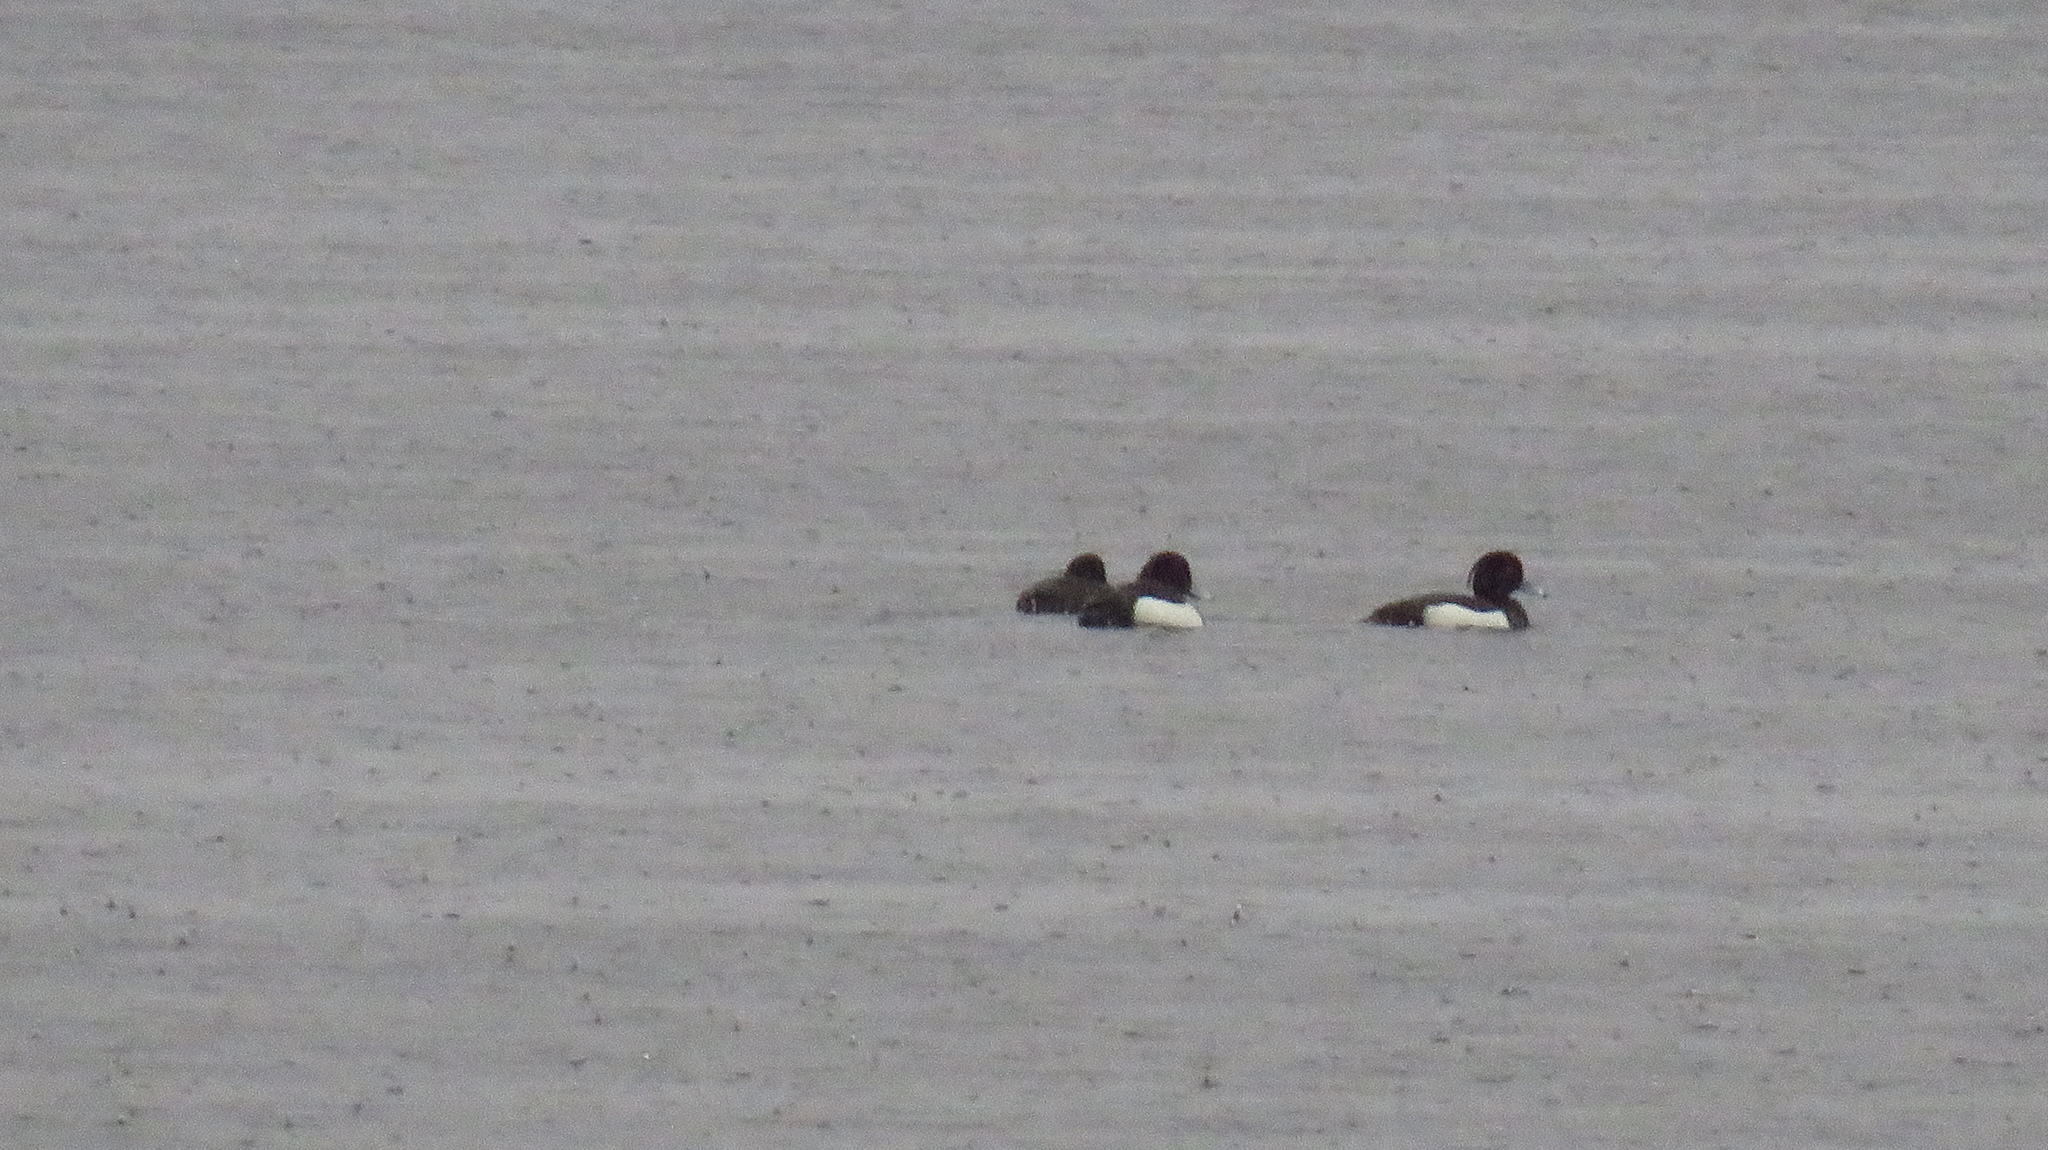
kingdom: Animalia
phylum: Chordata
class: Aves
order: Anseriformes
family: Anatidae
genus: Aythya
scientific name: Aythya fuligula
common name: Tufted duck
